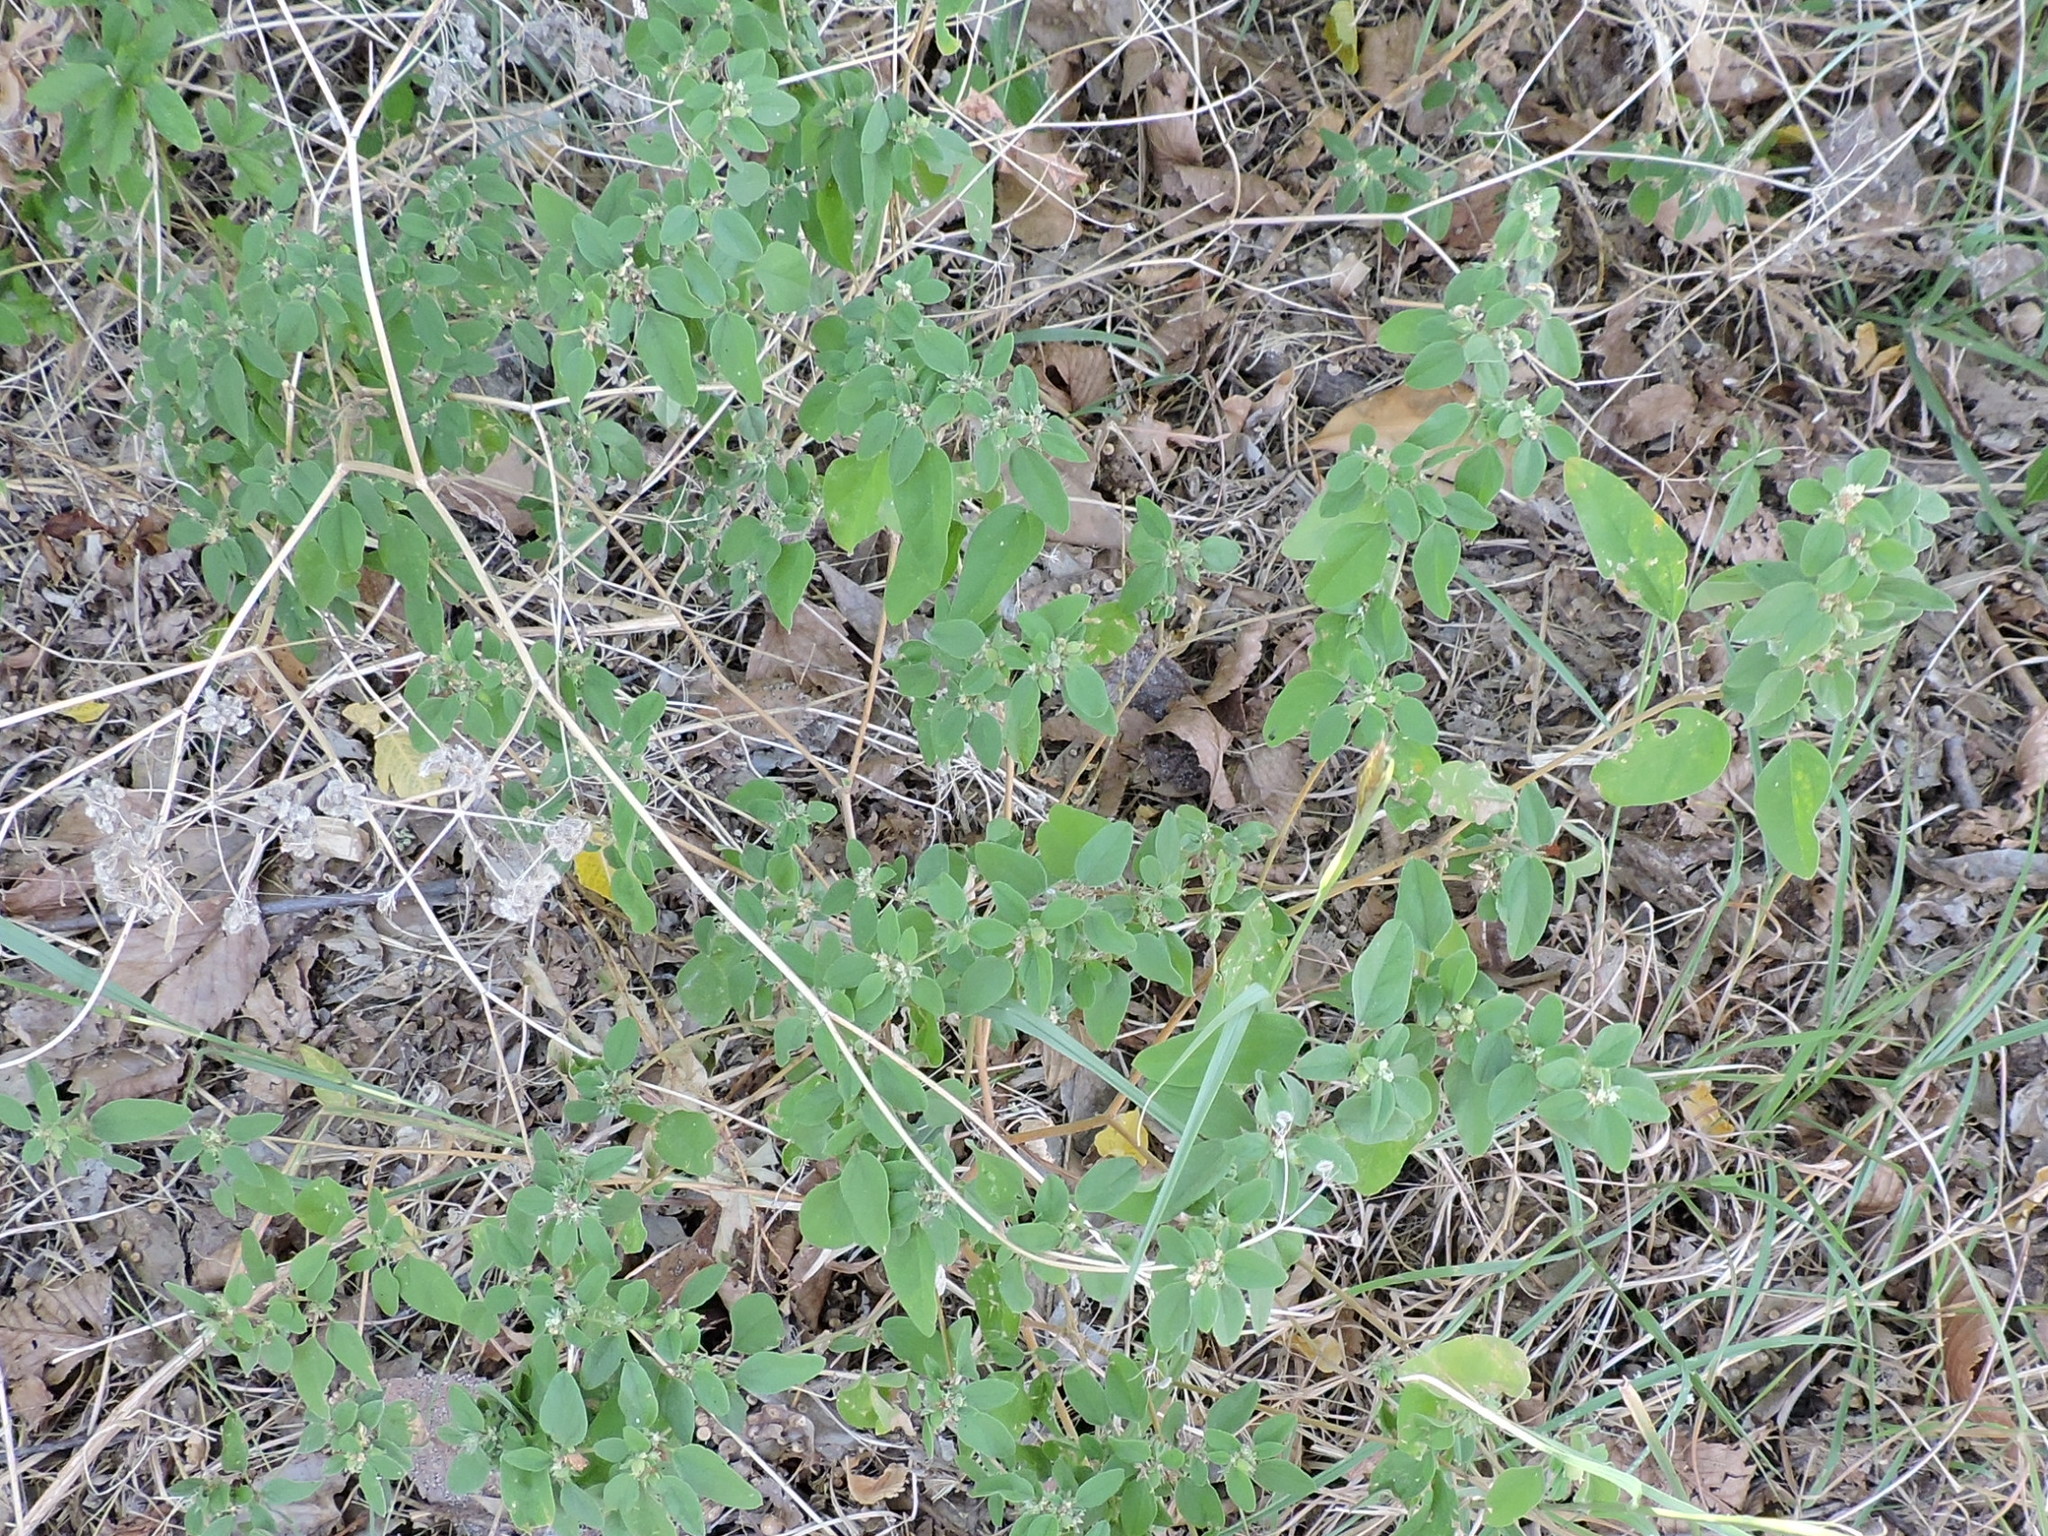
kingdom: Plantae
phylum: Tracheophyta
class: Magnoliopsida
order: Malpighiales
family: Euphorbiaceae
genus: Croton
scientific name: Croton monanthogynus
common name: One-seed croton
